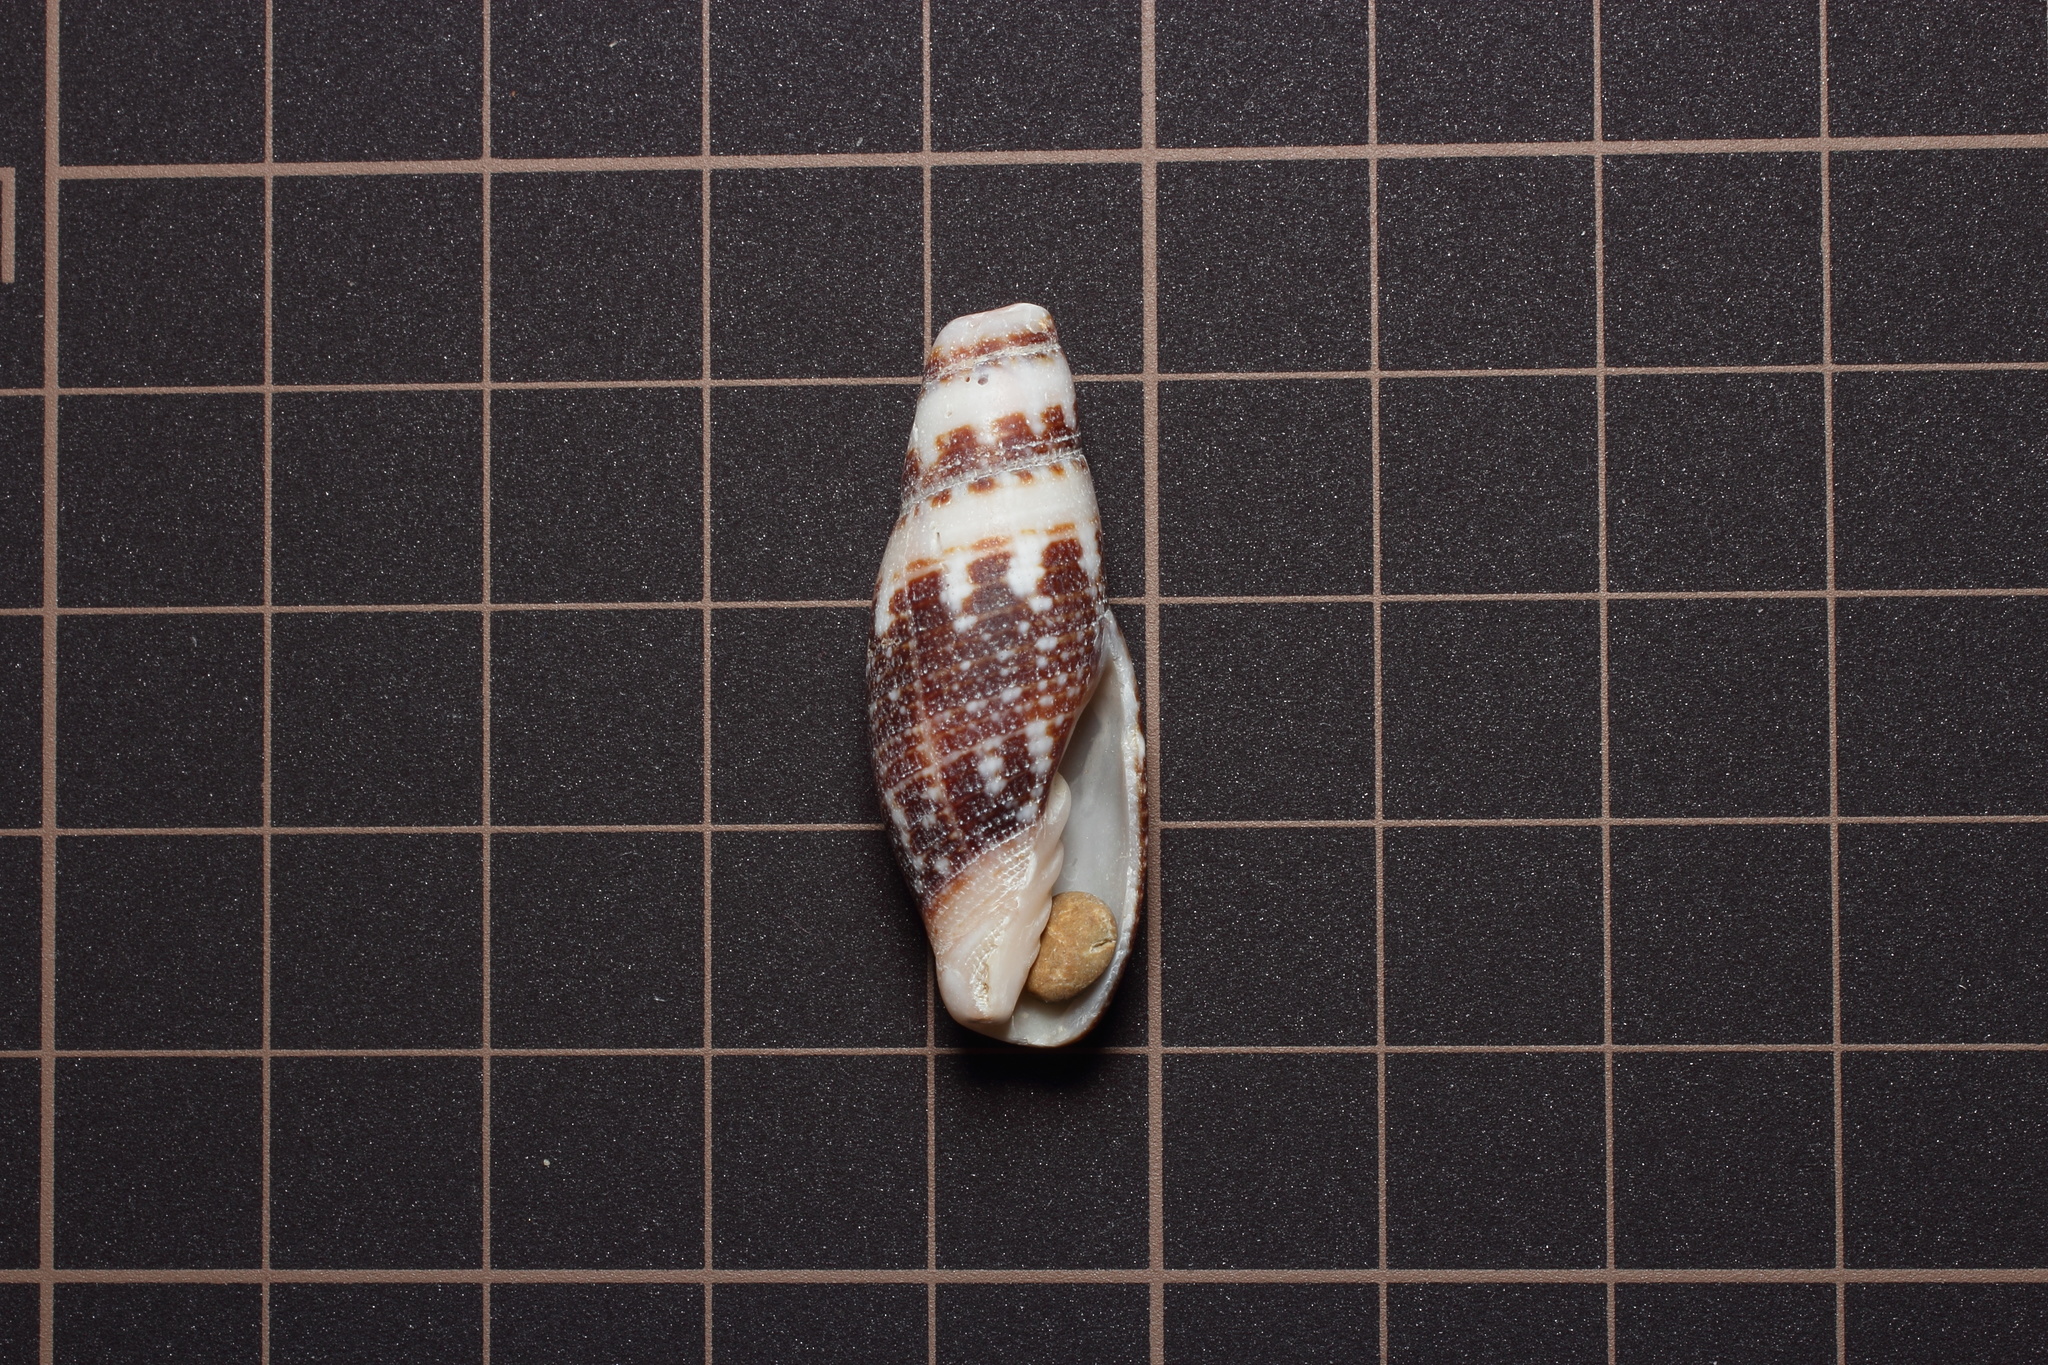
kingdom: Animalia
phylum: Mollusca
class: Gastropoda
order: Neogastropoda
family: Mitridae
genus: Neocancilla
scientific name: Neocancilla clathrus
